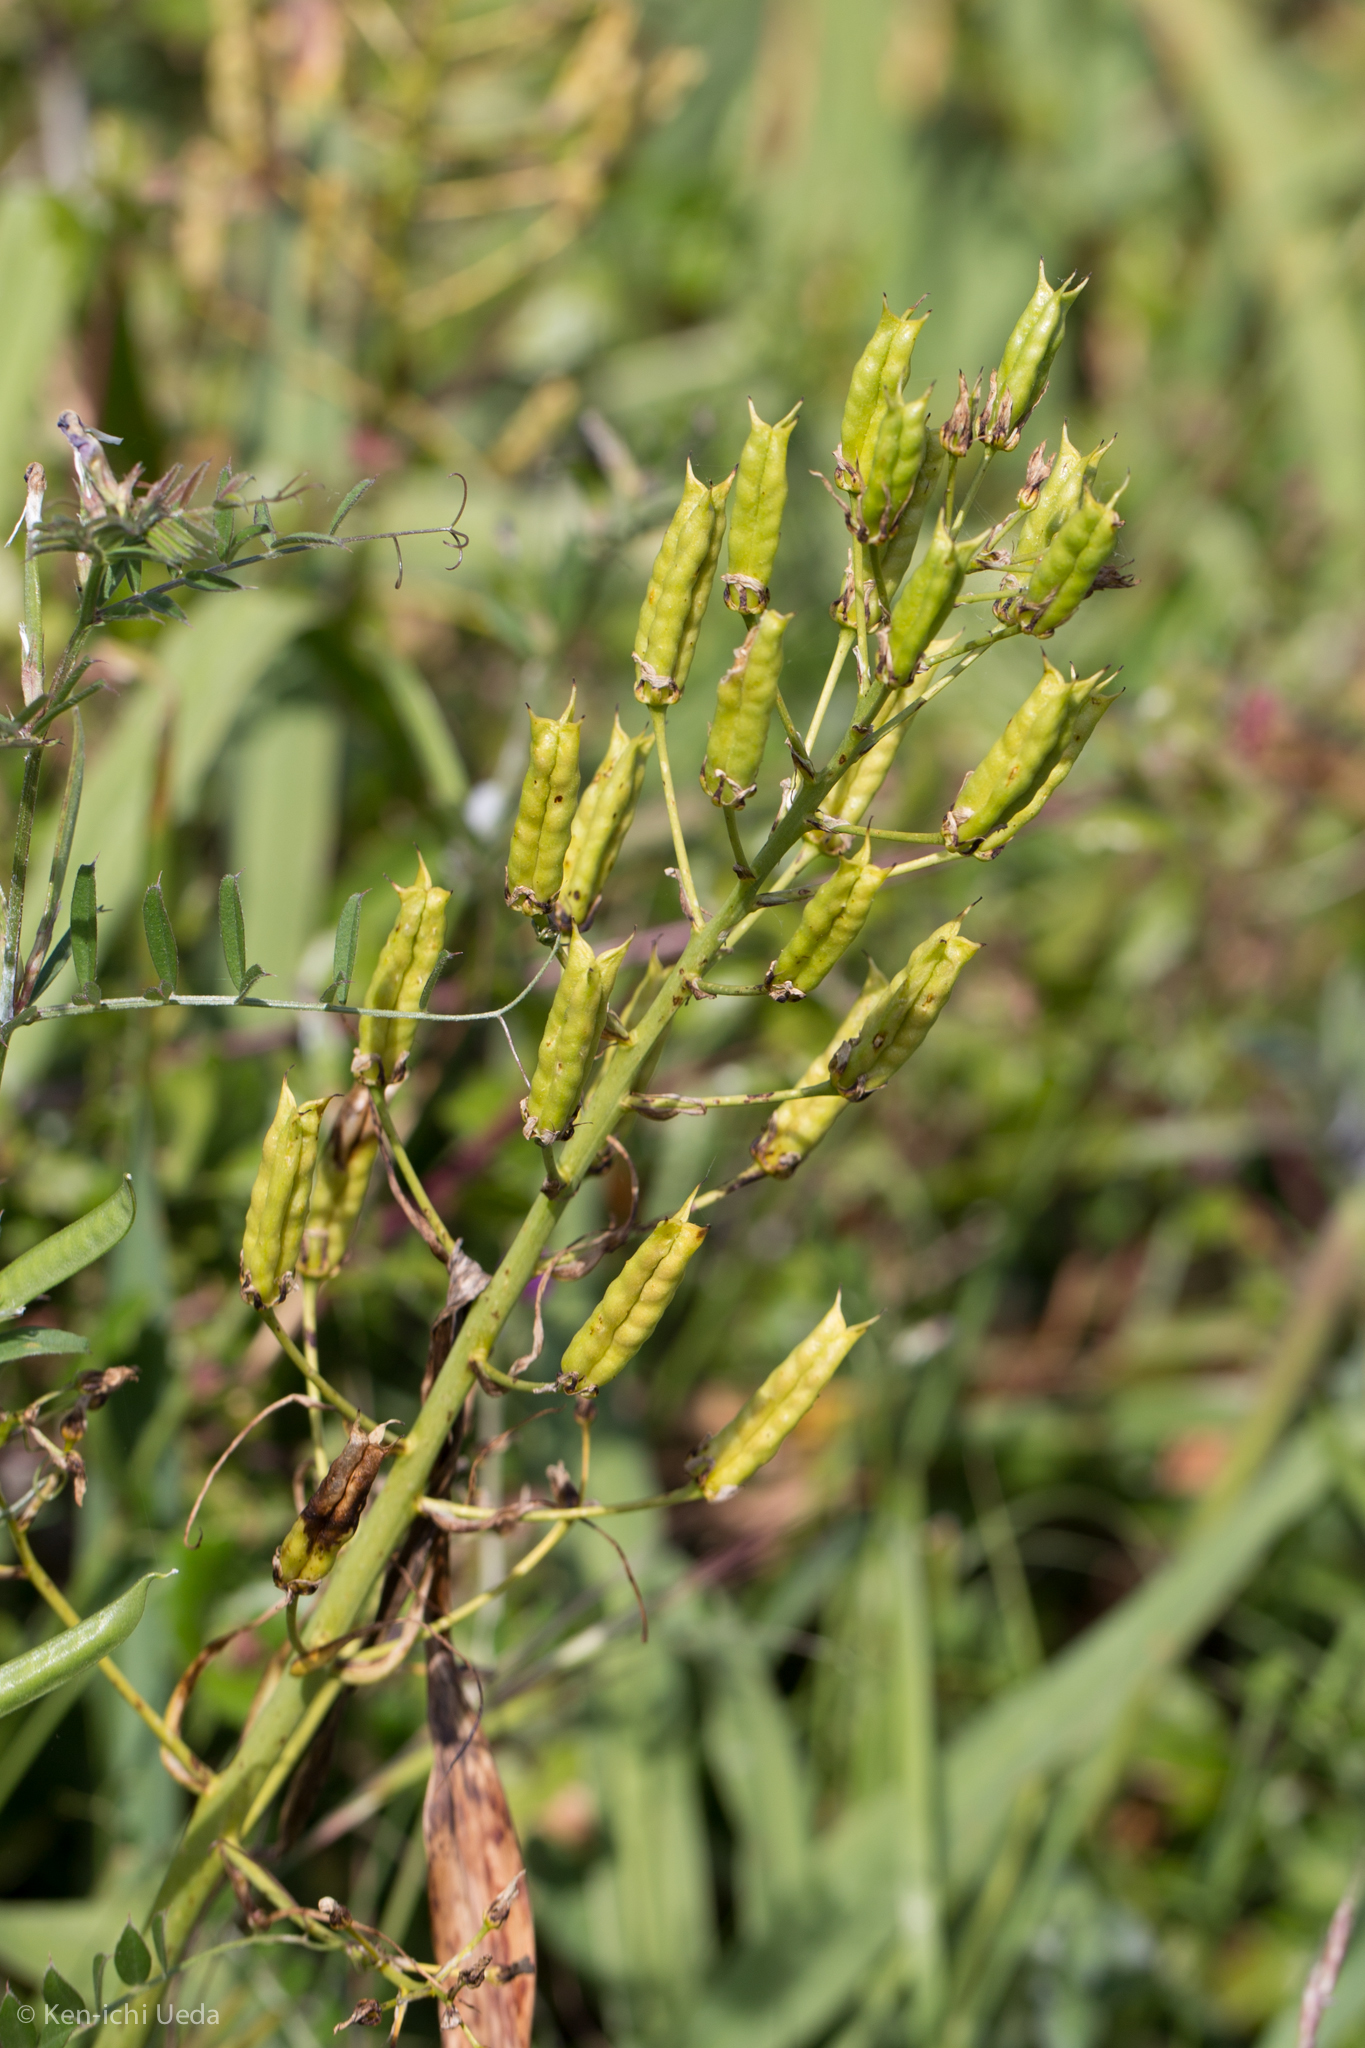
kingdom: Plantae
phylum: Tracheophyta
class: Liliopsida
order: Liliales
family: Melanthiaceae
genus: Toxicoscordion
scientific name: Toxicoscordion fremontii
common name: Fremont's death camas
